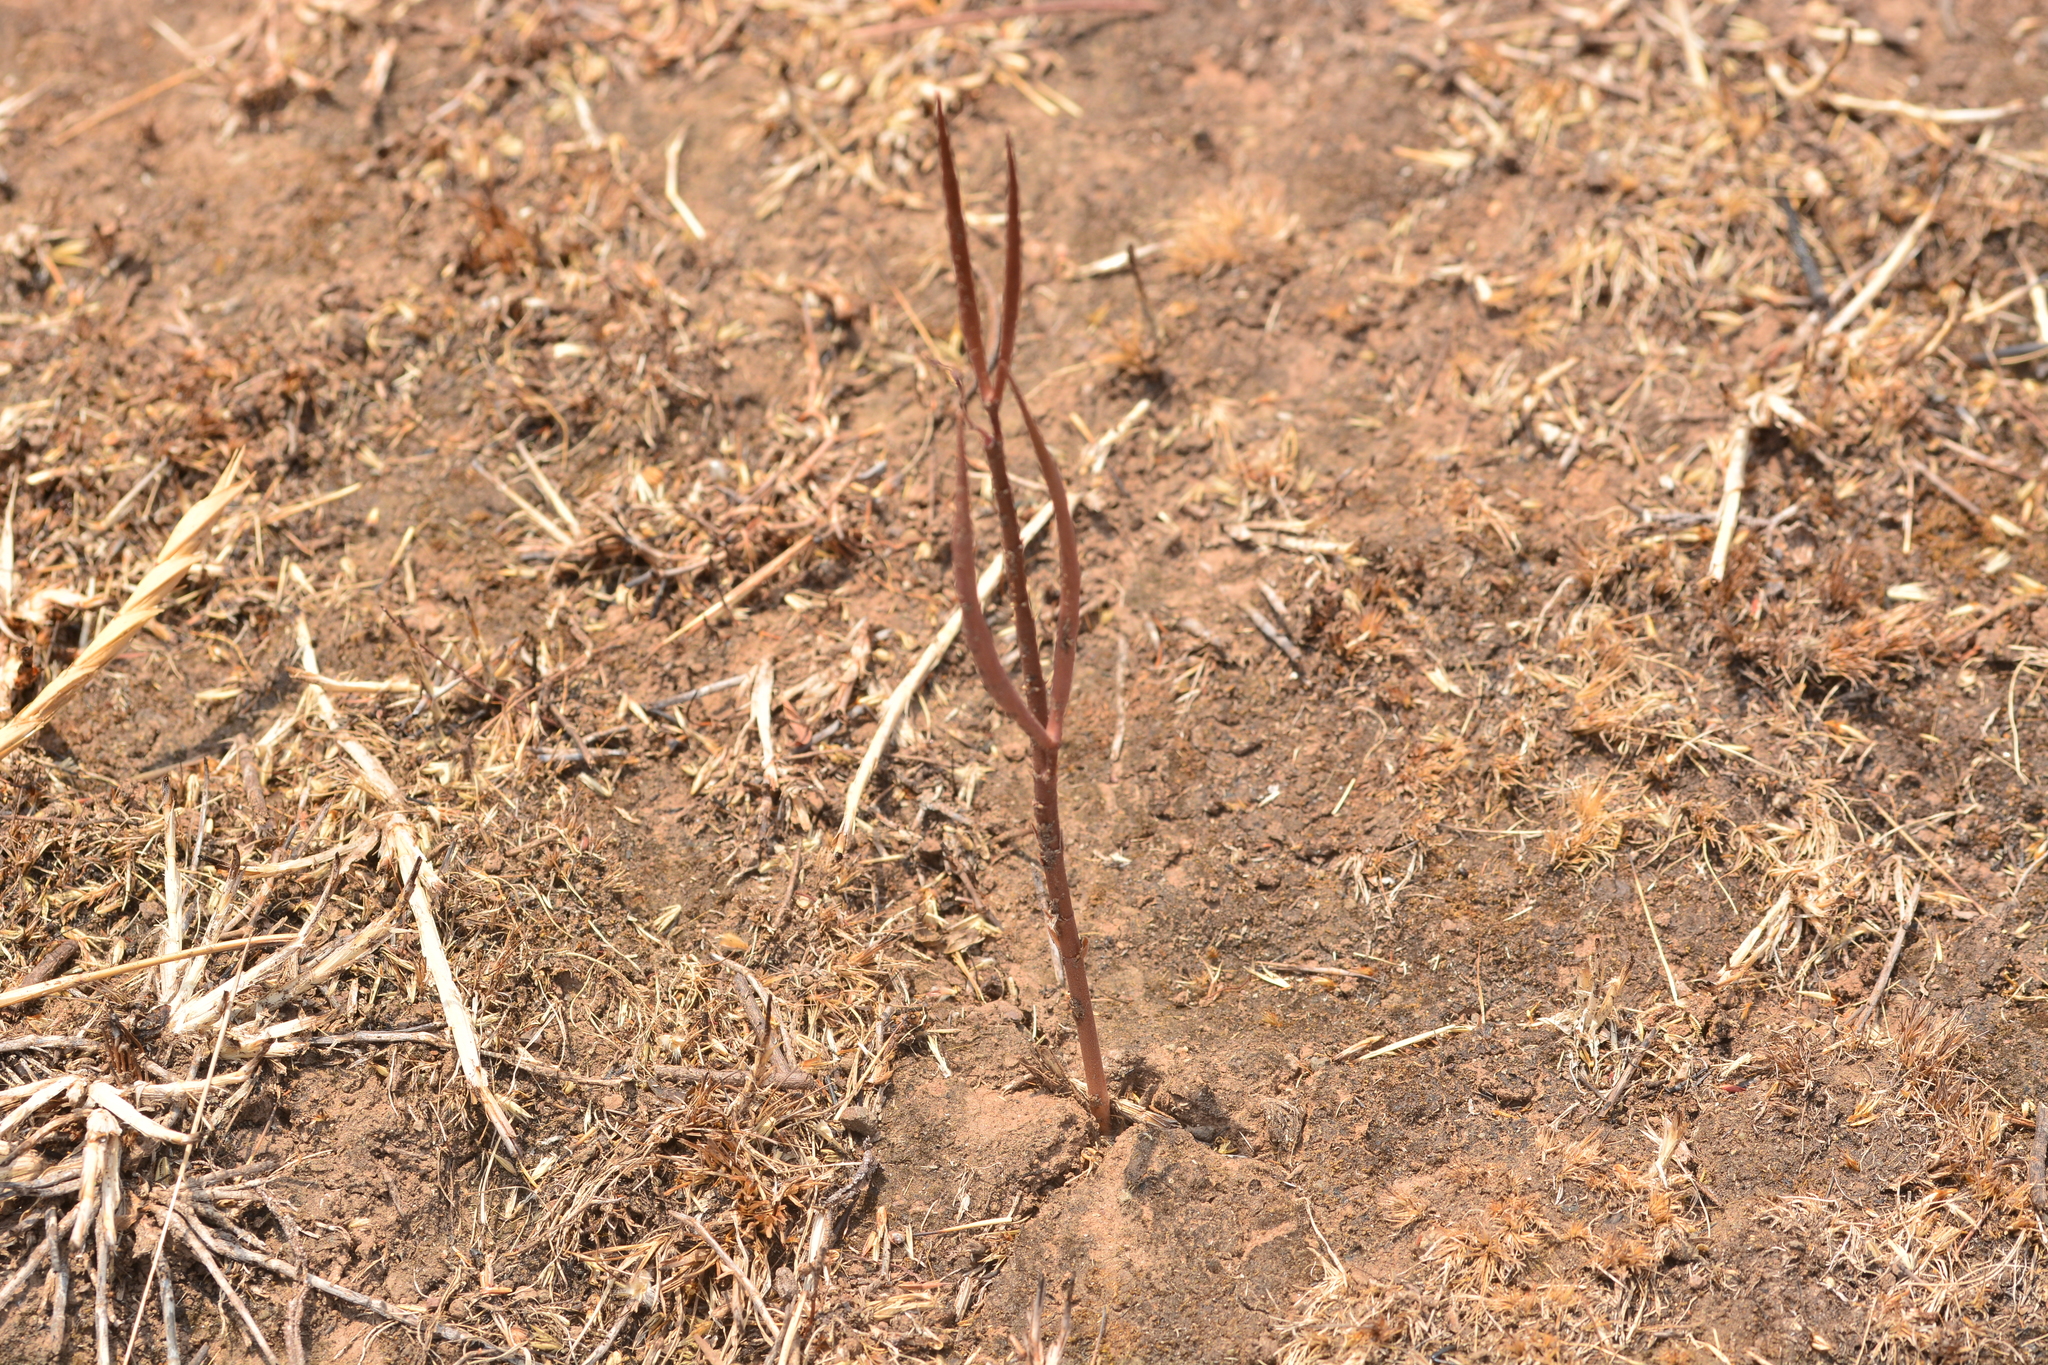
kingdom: Plantae
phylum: Tracheophyta
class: Magnoliopsida
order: Gentianales
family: Apocynaceae
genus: Ceropegia
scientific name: Ceropegia malwanensis
